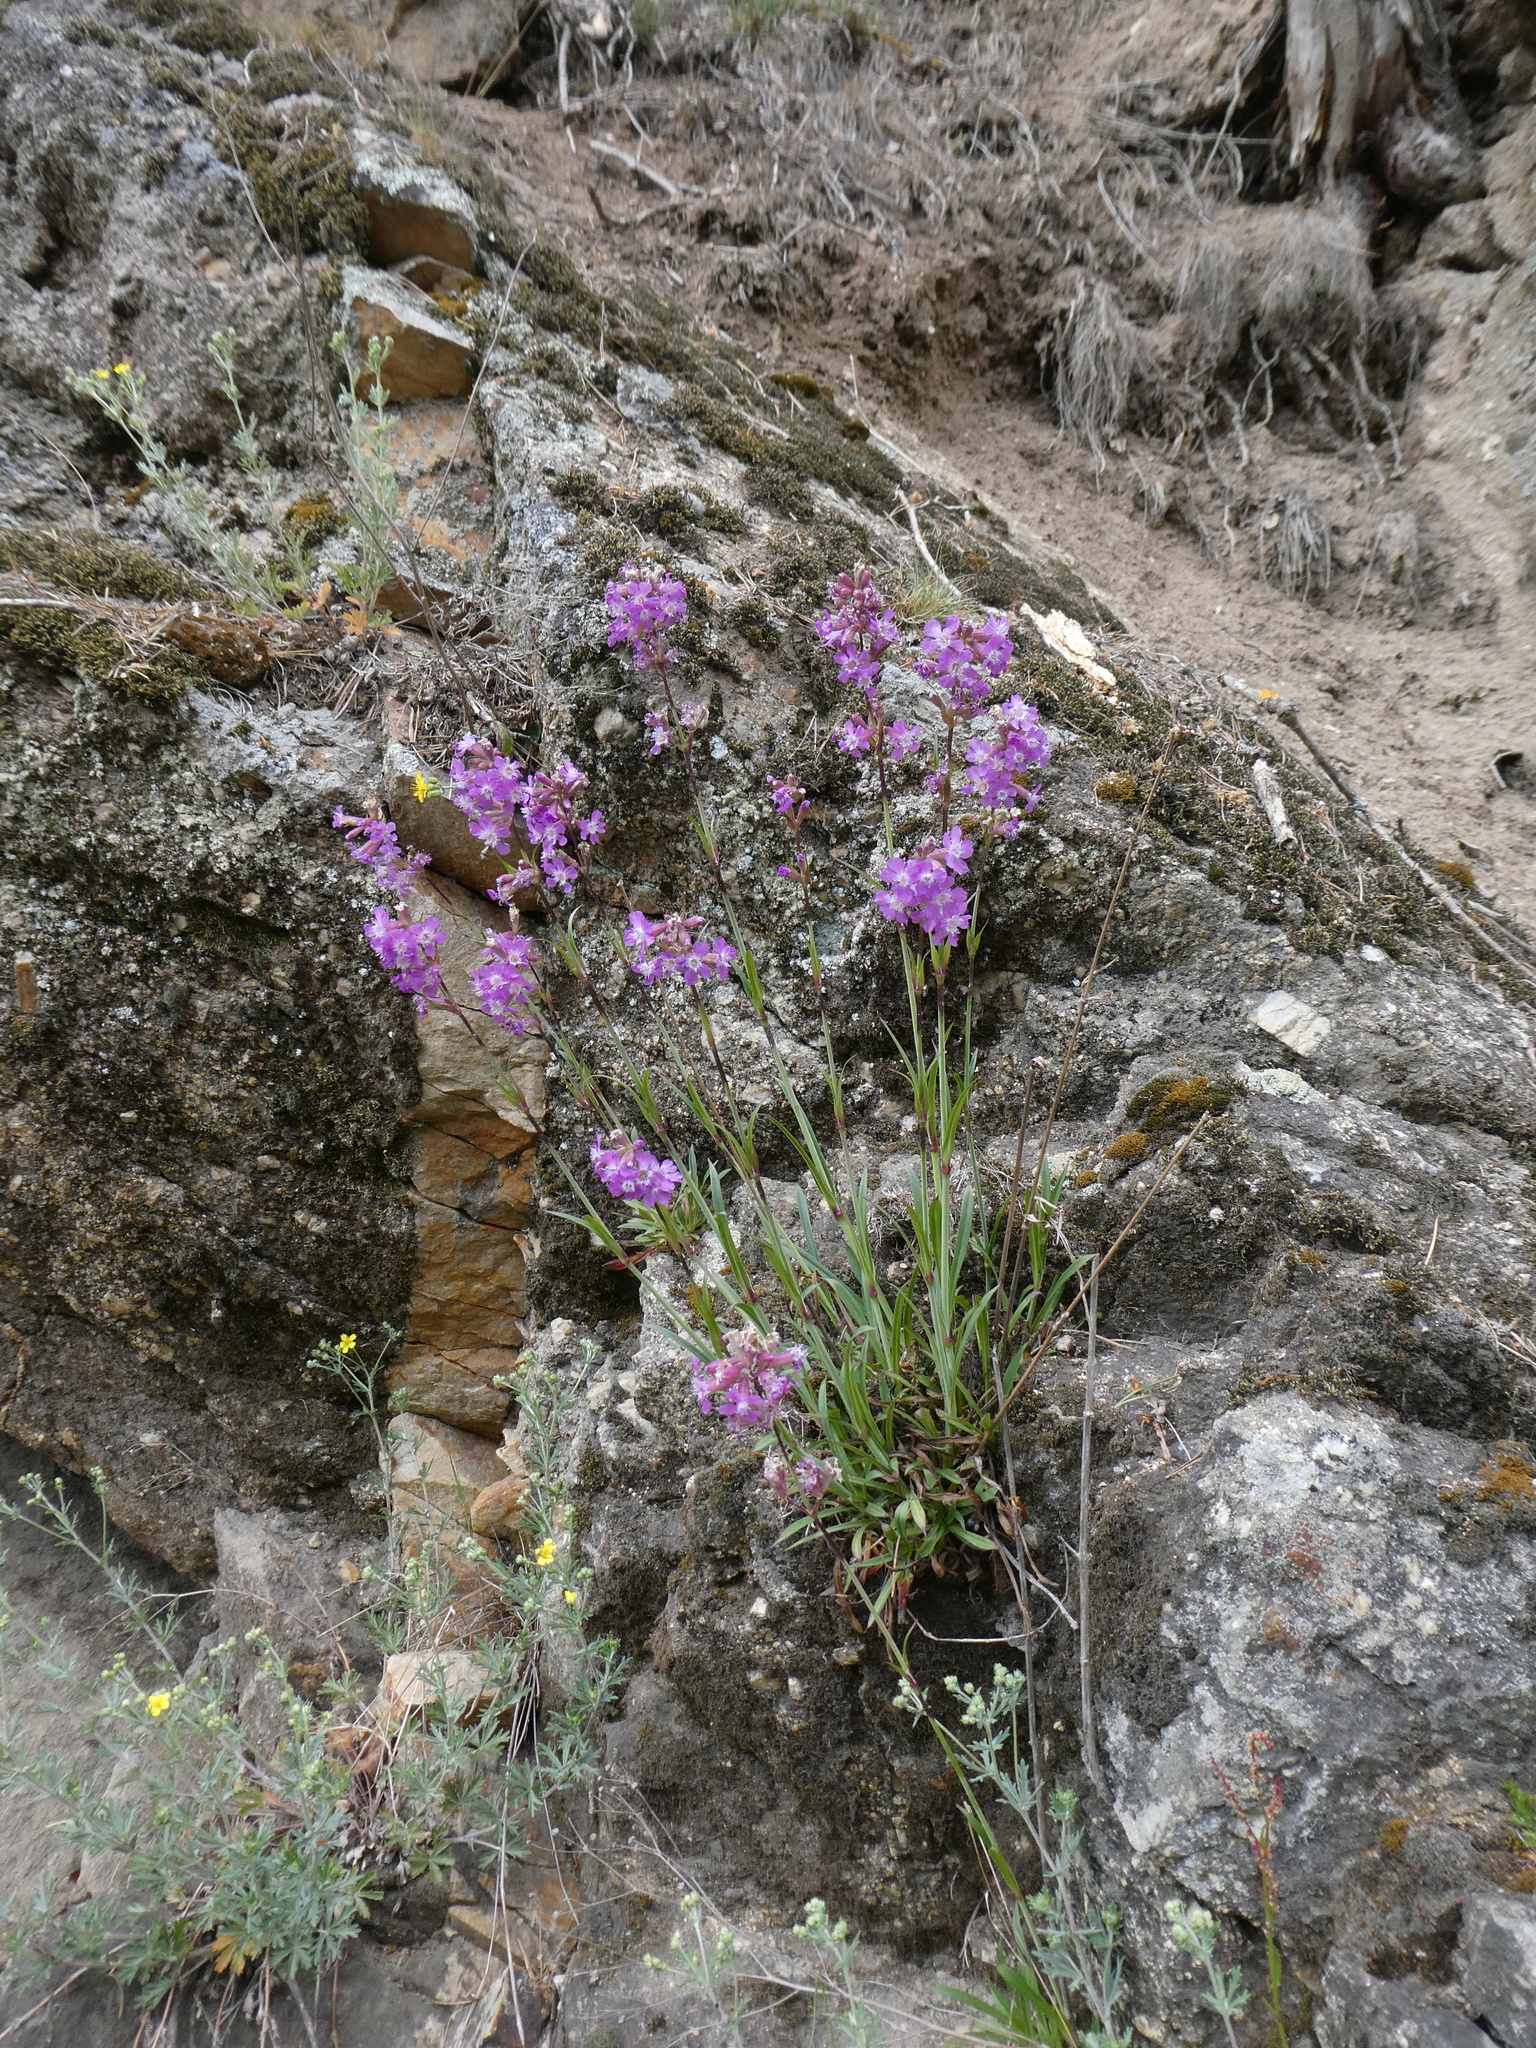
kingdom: Plantae
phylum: Tracheophyta
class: Magnoliopsida
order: Caryophyllales
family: Caryophyllaceae
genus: Viscaria
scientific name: Viscaria vulgaris
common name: Clammy campion
